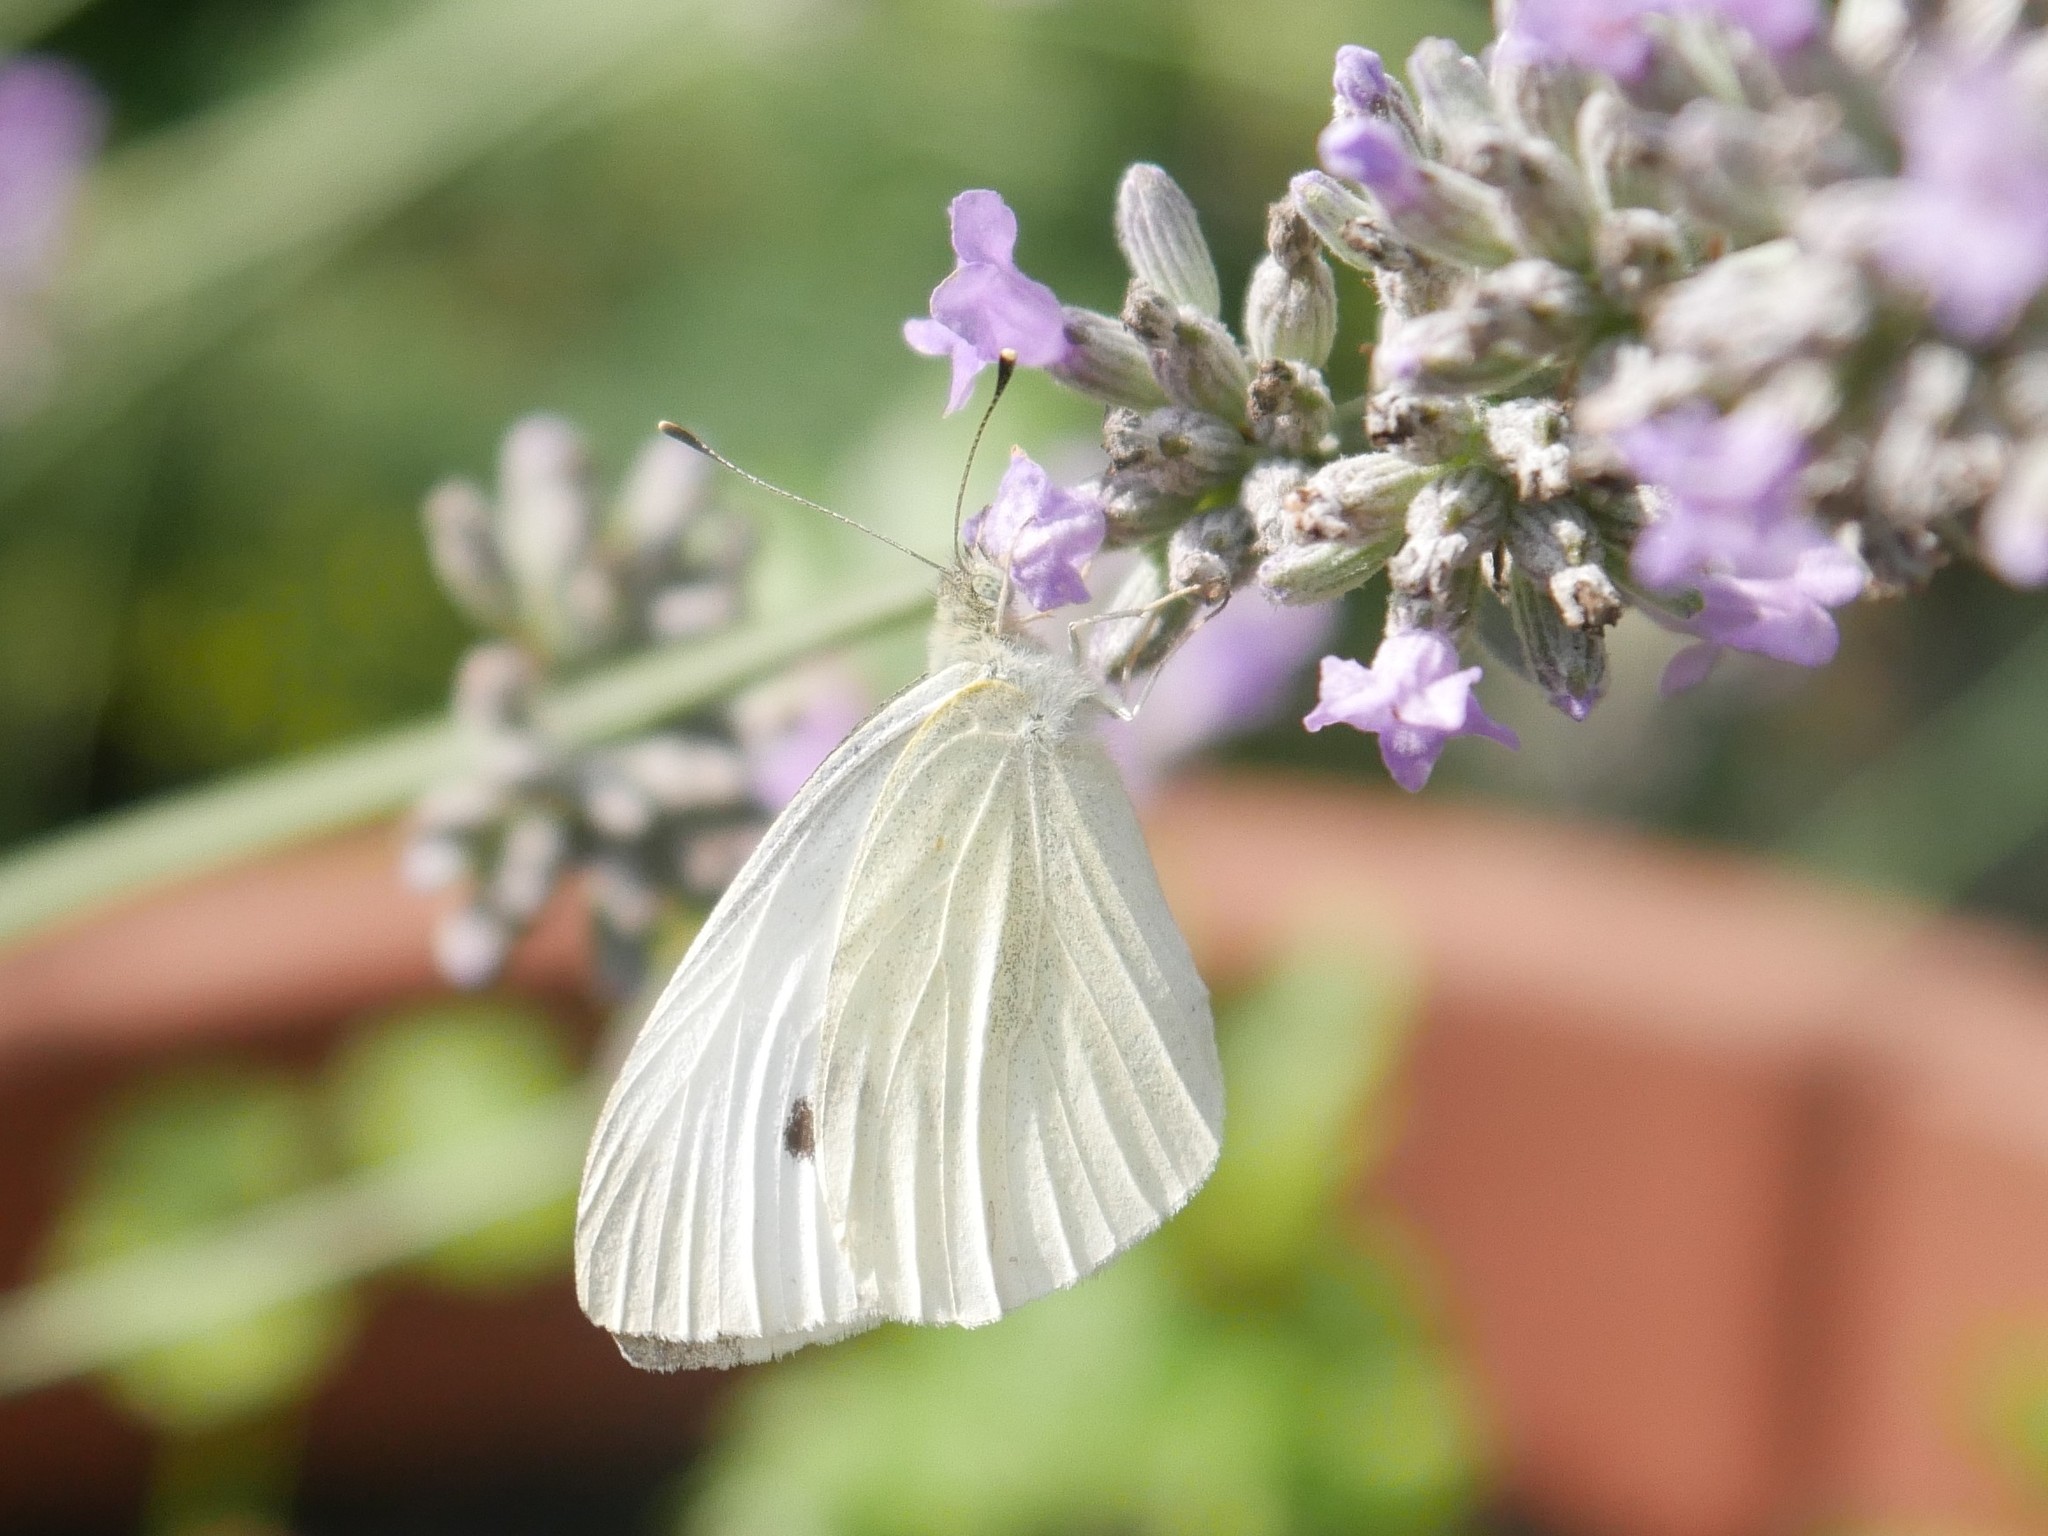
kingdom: Animalia
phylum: Arthropoda
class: Insecta
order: Lepidoptera
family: Pieridae
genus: Pieris
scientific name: Pieris rapae
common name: Small white
